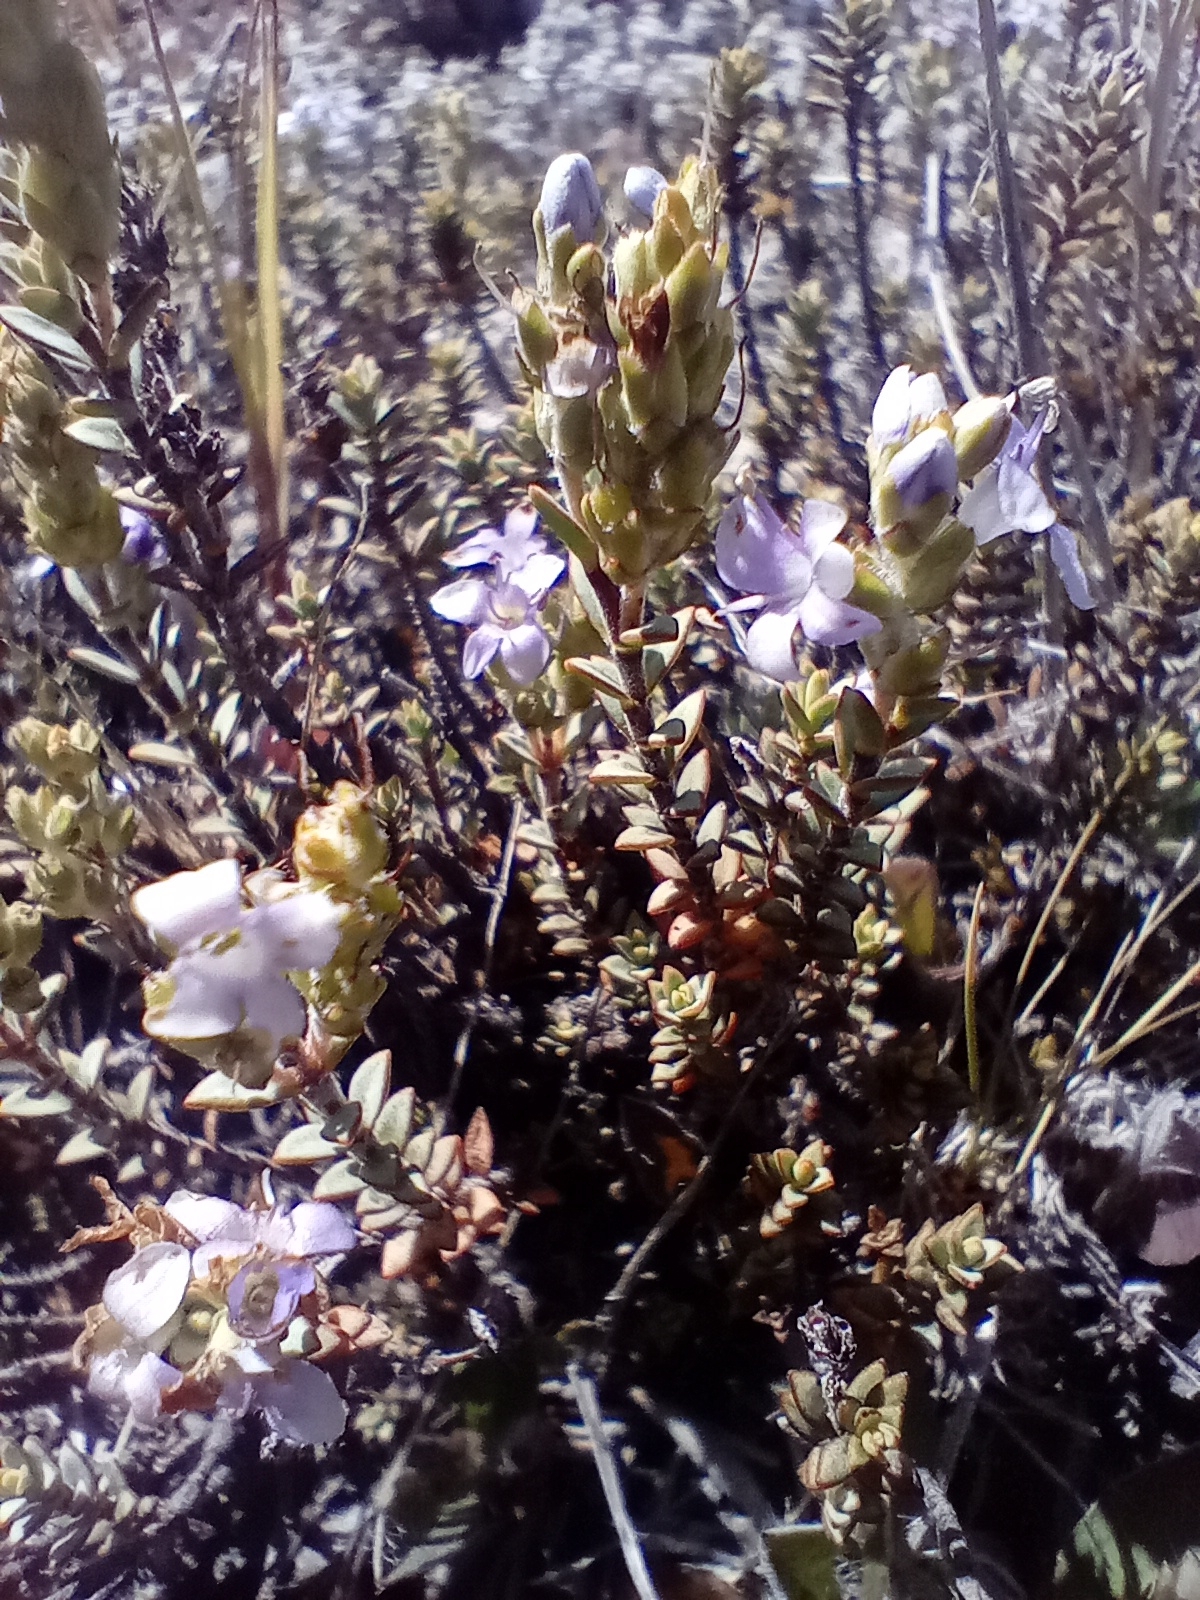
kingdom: Plantae
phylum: Tracheophyta
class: Magnoliopsida
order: Lamiales
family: Plantaginaceae
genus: Veronica
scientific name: Veronica pimeleoides
